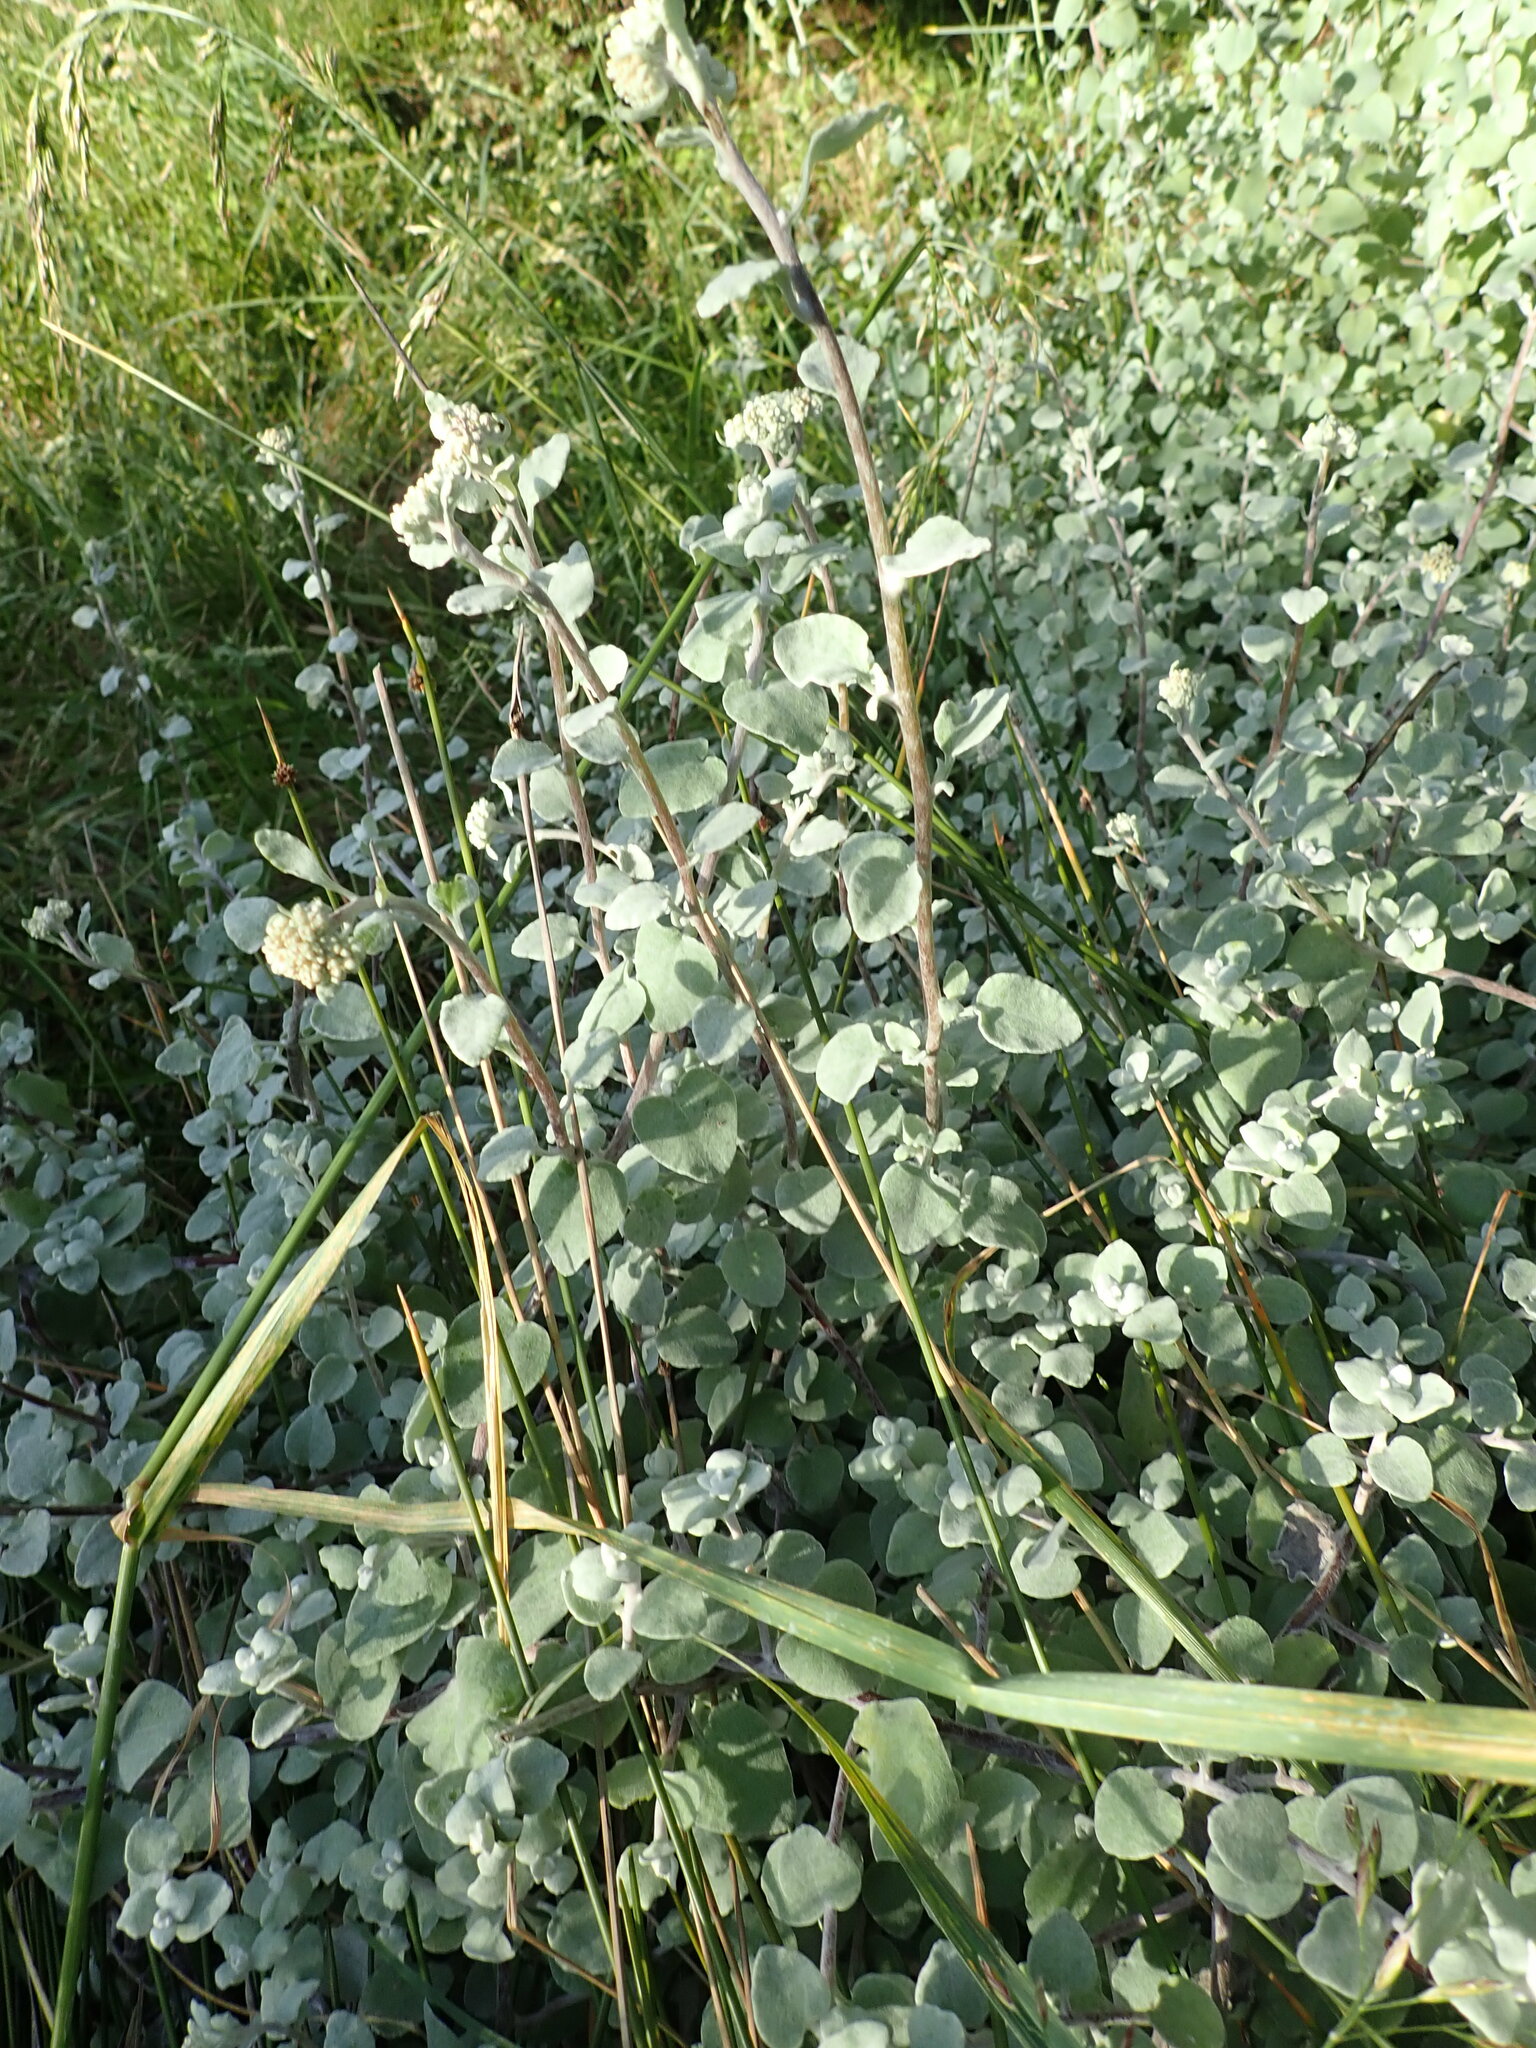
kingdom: Plantae
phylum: Tracheophyta
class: Magnoliopsida
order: Asterales
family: Asteraceae
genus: Helichrysum
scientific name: Helichrysum petiolare
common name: Licorice-plant
